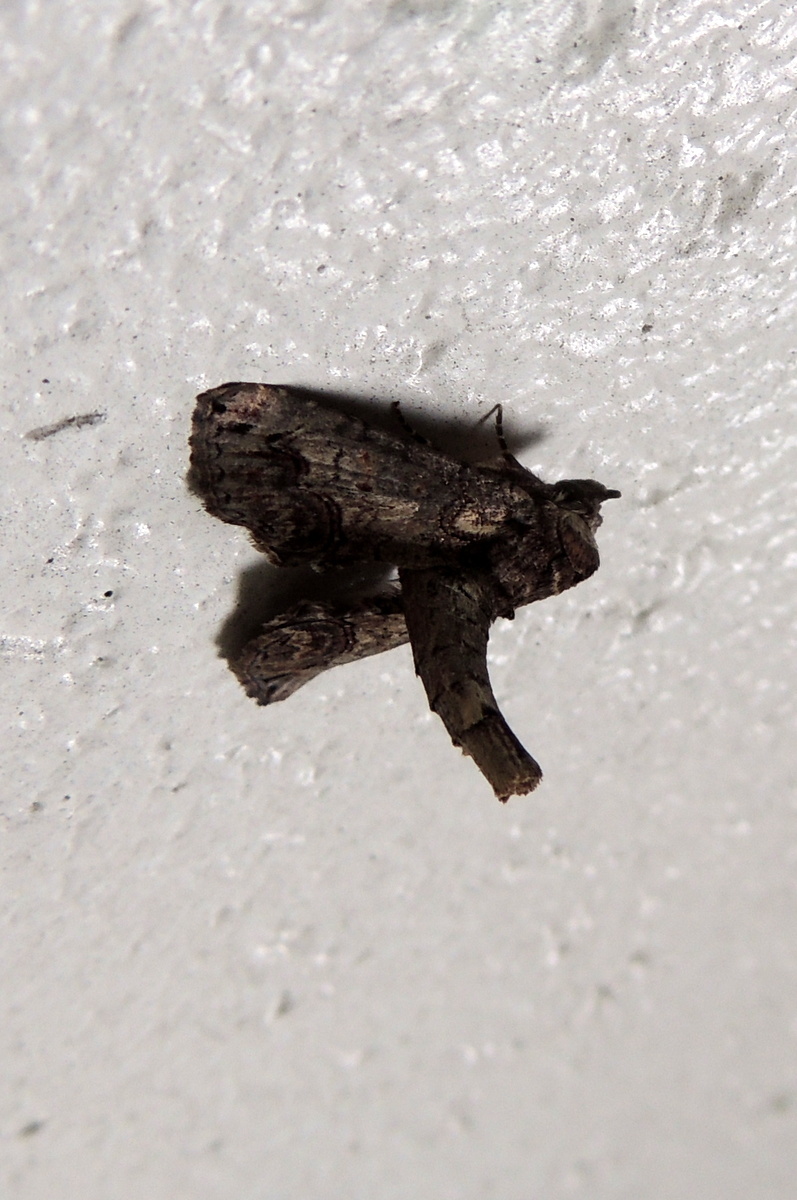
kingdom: Animalia
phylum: Arthropoda
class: Insecta
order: Lepidoptera
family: Euteliidae
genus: Paectes
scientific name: Paectes abrostoloides
